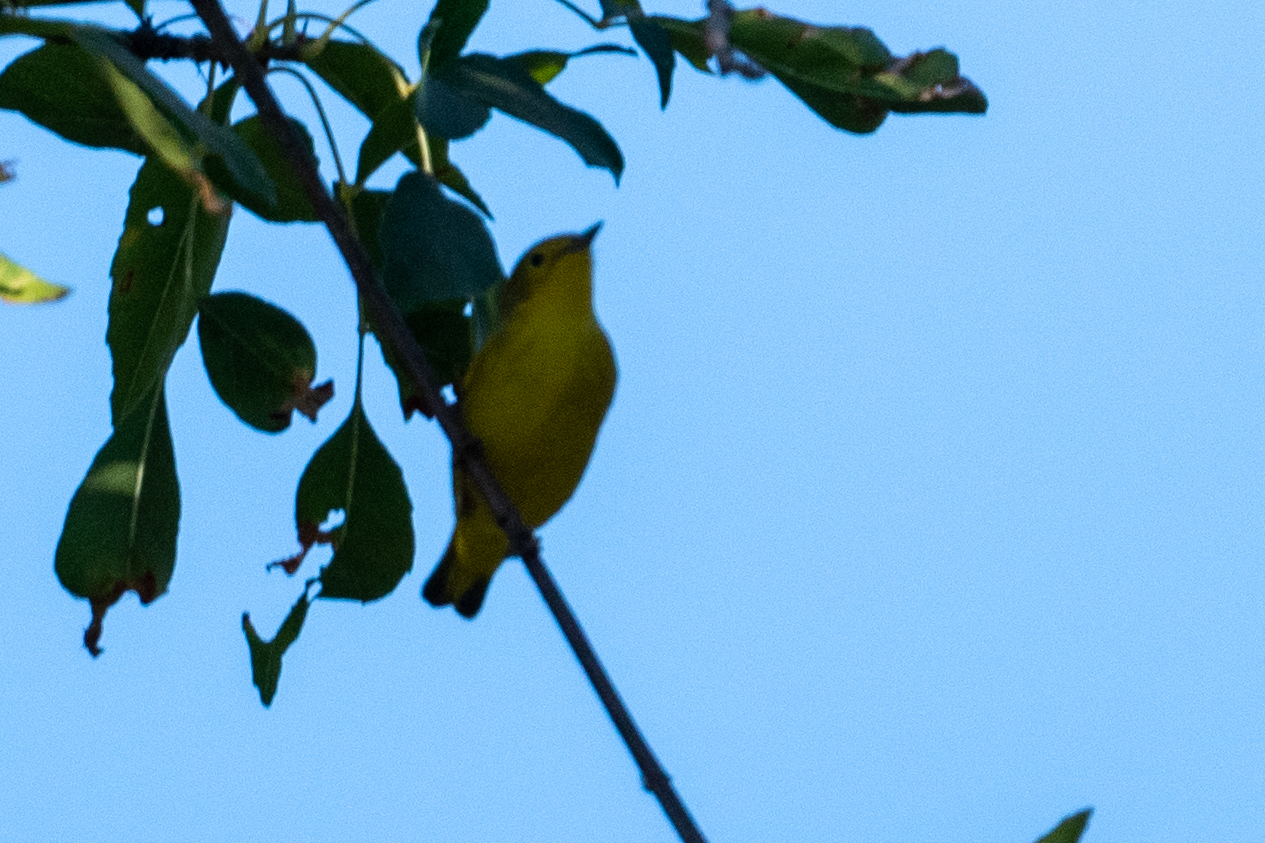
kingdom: Animalia
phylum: Chordata
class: Aves
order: Passeriformes
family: Parulidae
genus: Setophaga
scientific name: Setophaga petechia
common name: Yellow warbler
